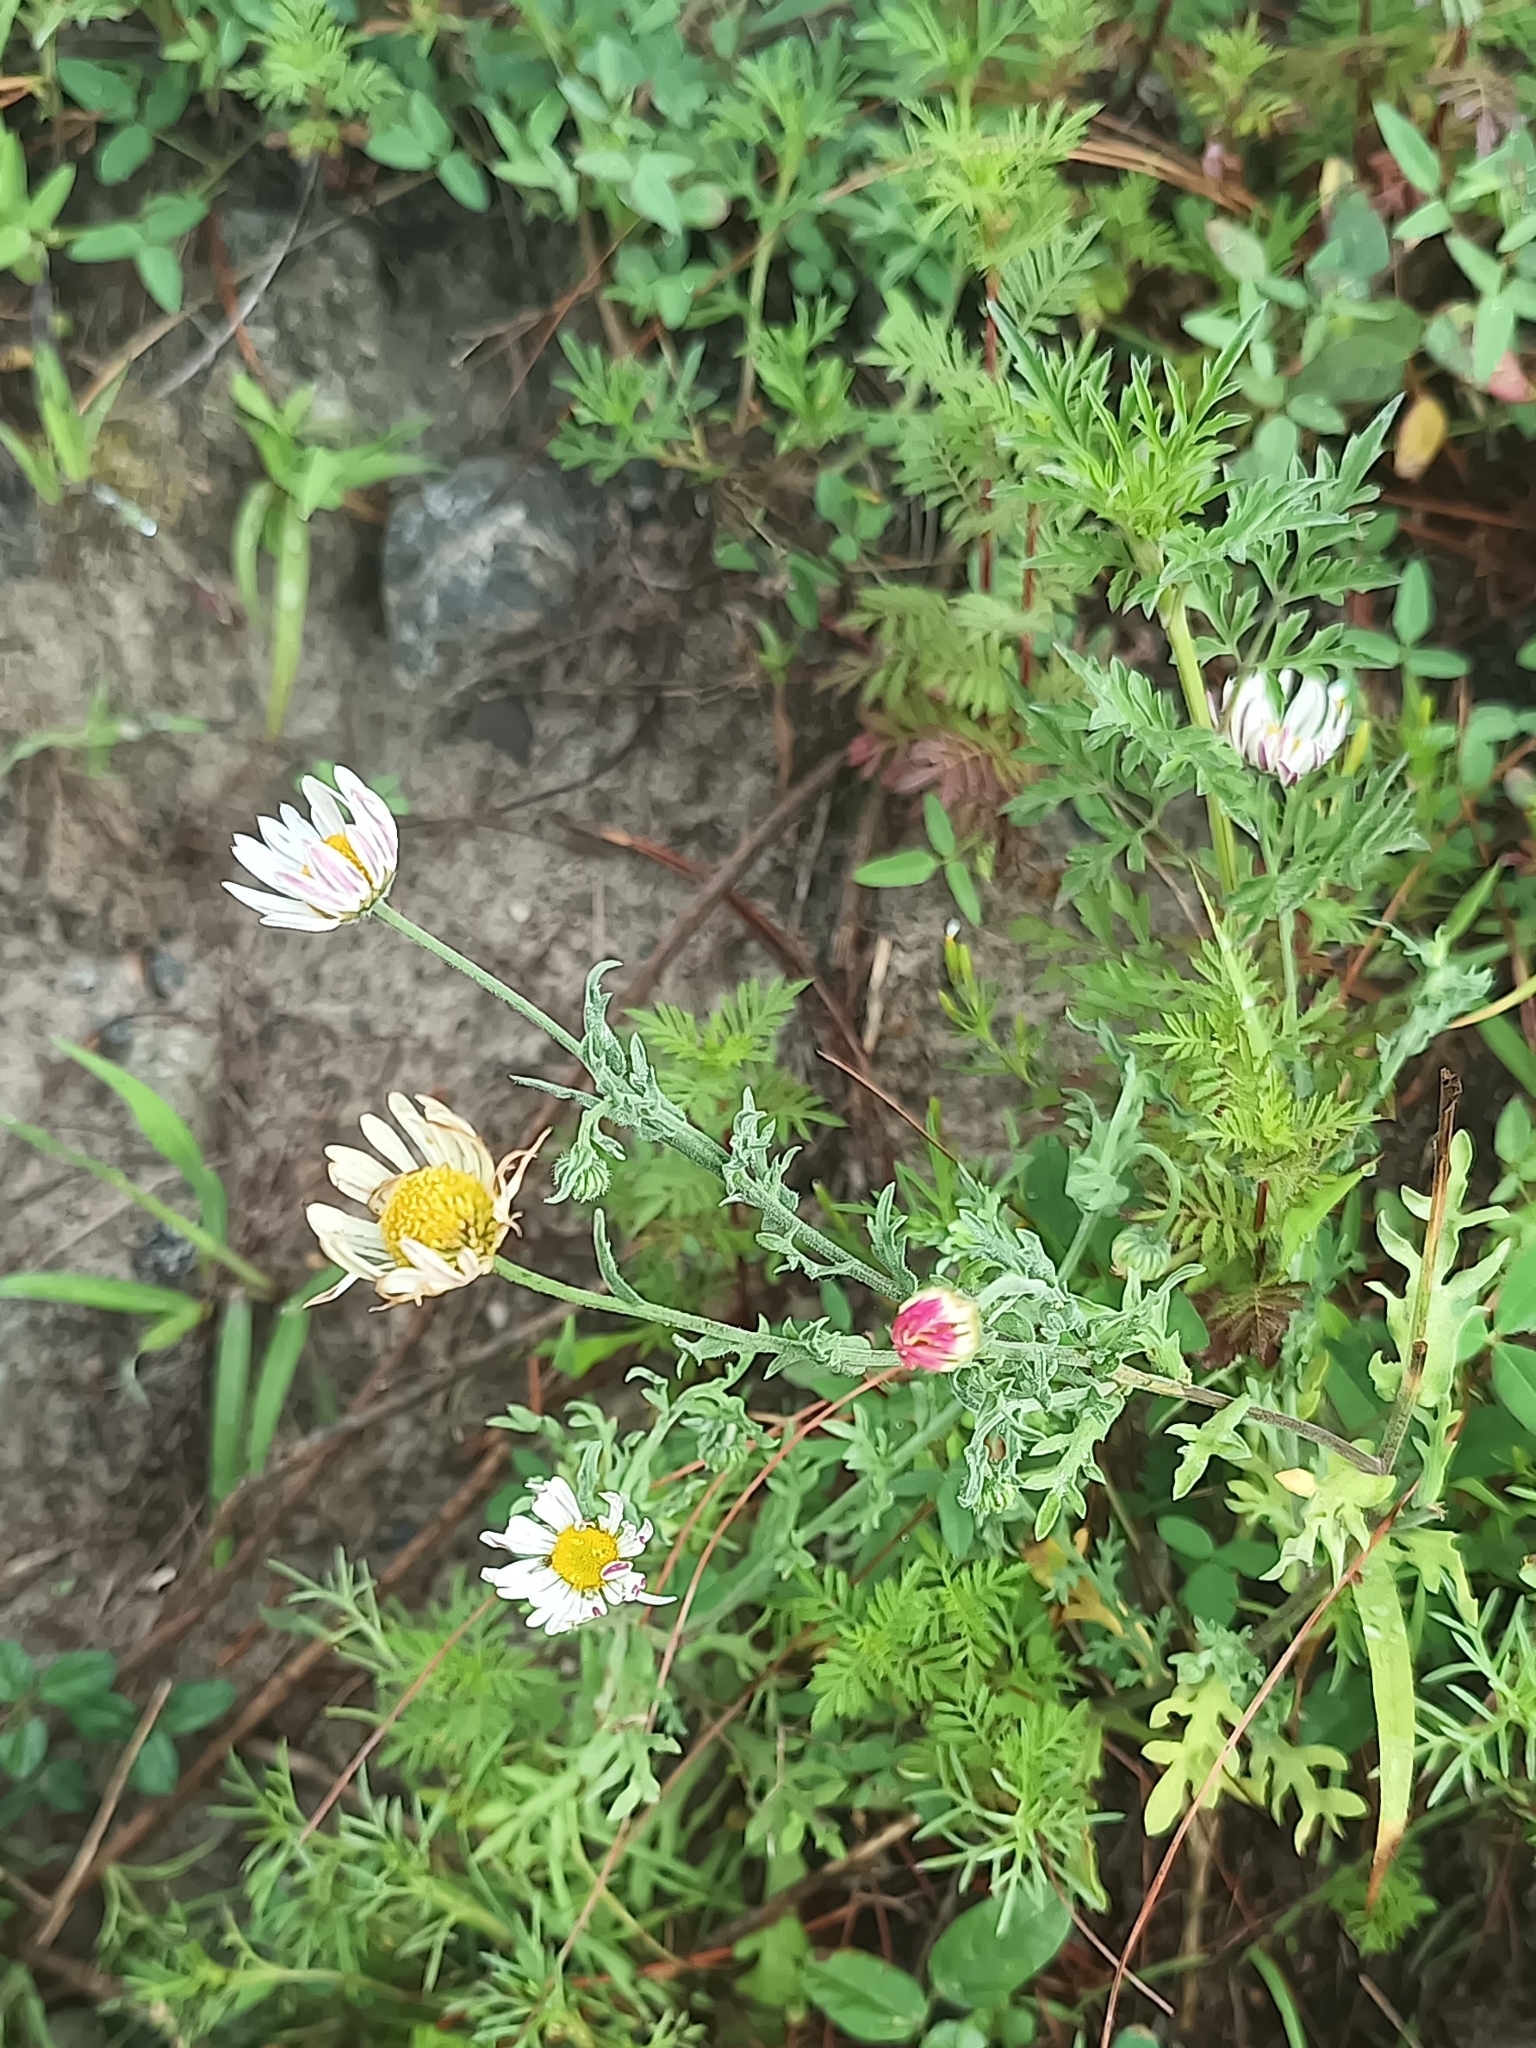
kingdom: Plantae
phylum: Tracheophyta
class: Magnoliopsida
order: Asterales
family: Asteraceae
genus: Aphanostephus
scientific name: Aphanostephus ramosissimus
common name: Plains lazy daisy
